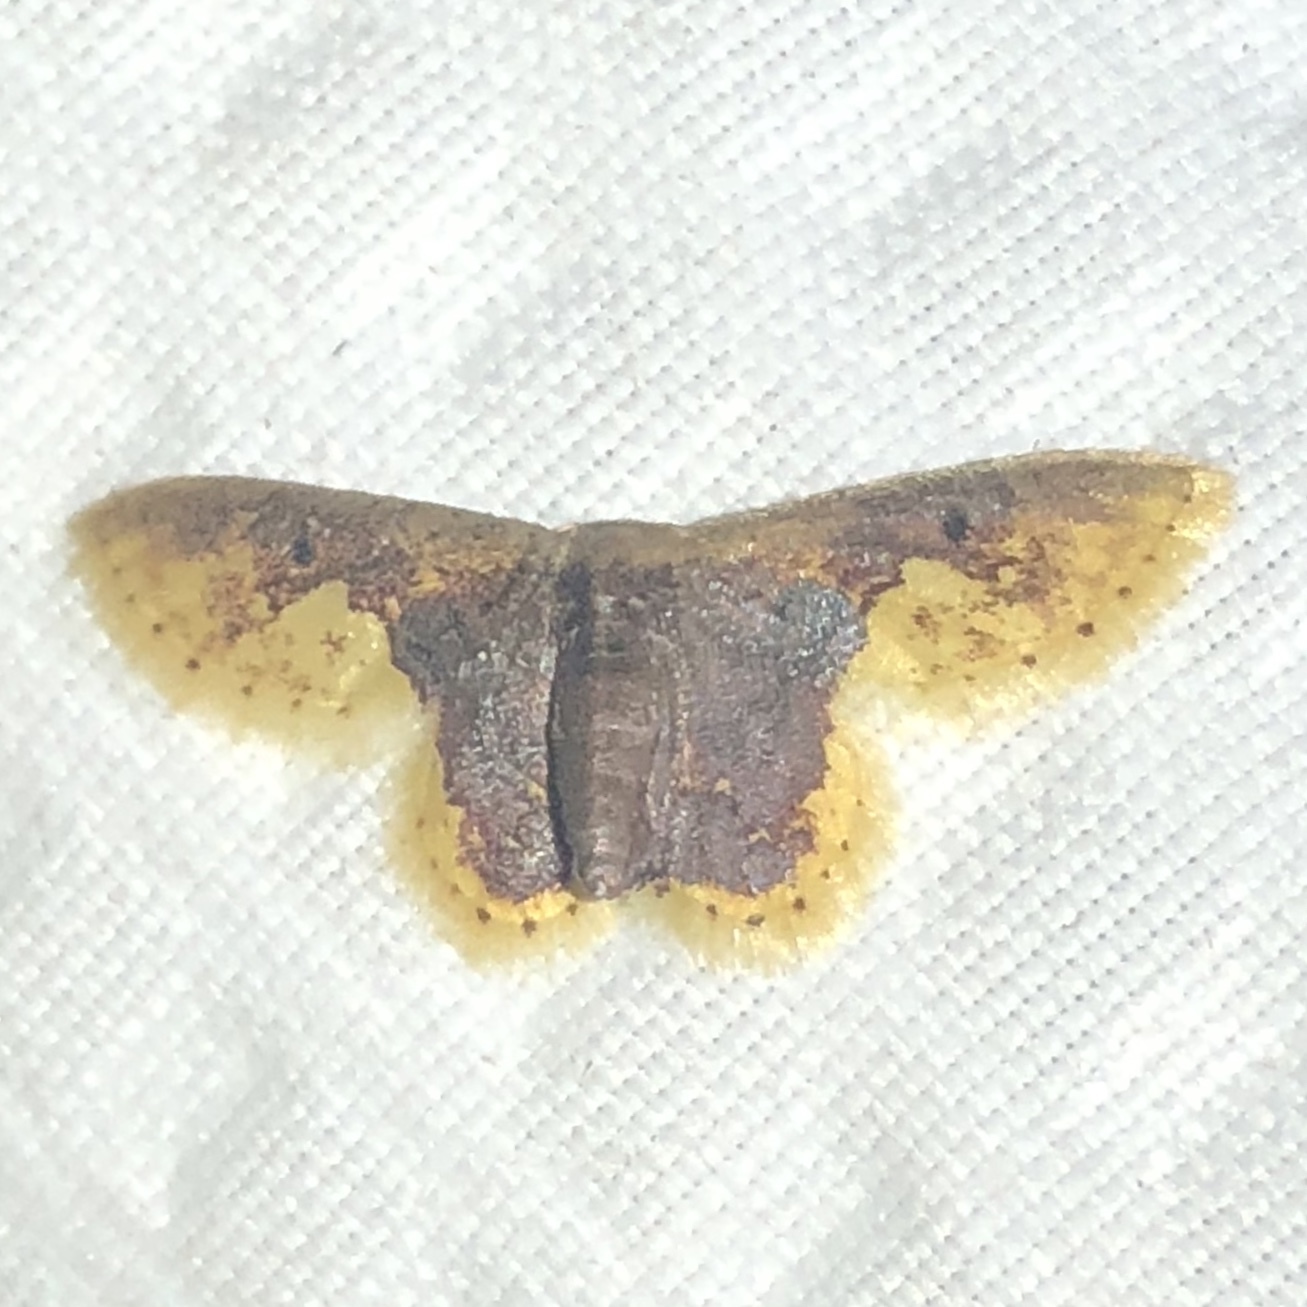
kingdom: Animalia
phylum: Arthropoda
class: Insecta
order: Lepidoptera
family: Geometridae
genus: Idaea
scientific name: Idaea helleria
